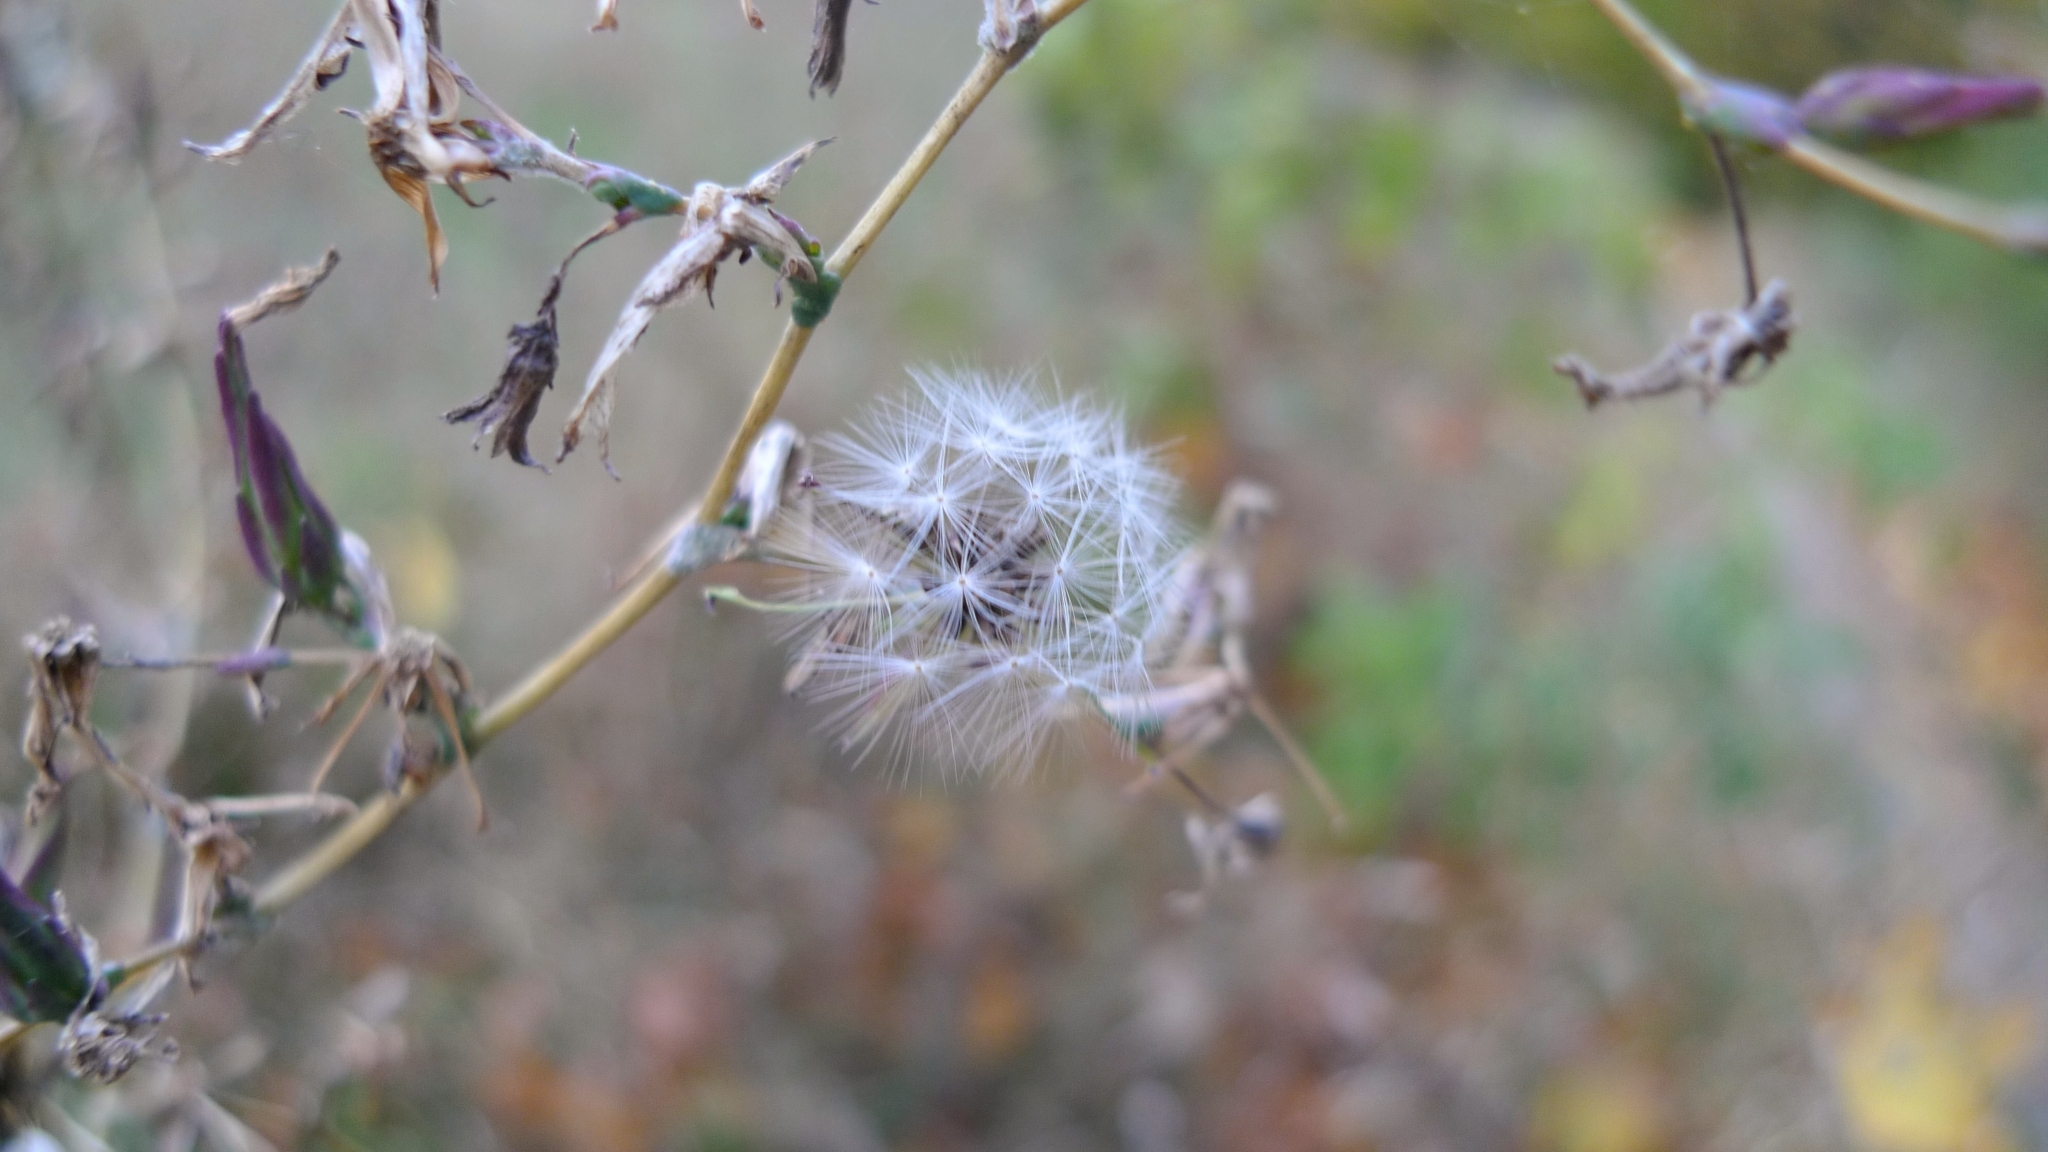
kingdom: Plantae
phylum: Tracheophyta
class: Magnoliopsida
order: Asterales
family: Asteraceae
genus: Lactuca
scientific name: Lactuca serriola
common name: Prickly lettuce
